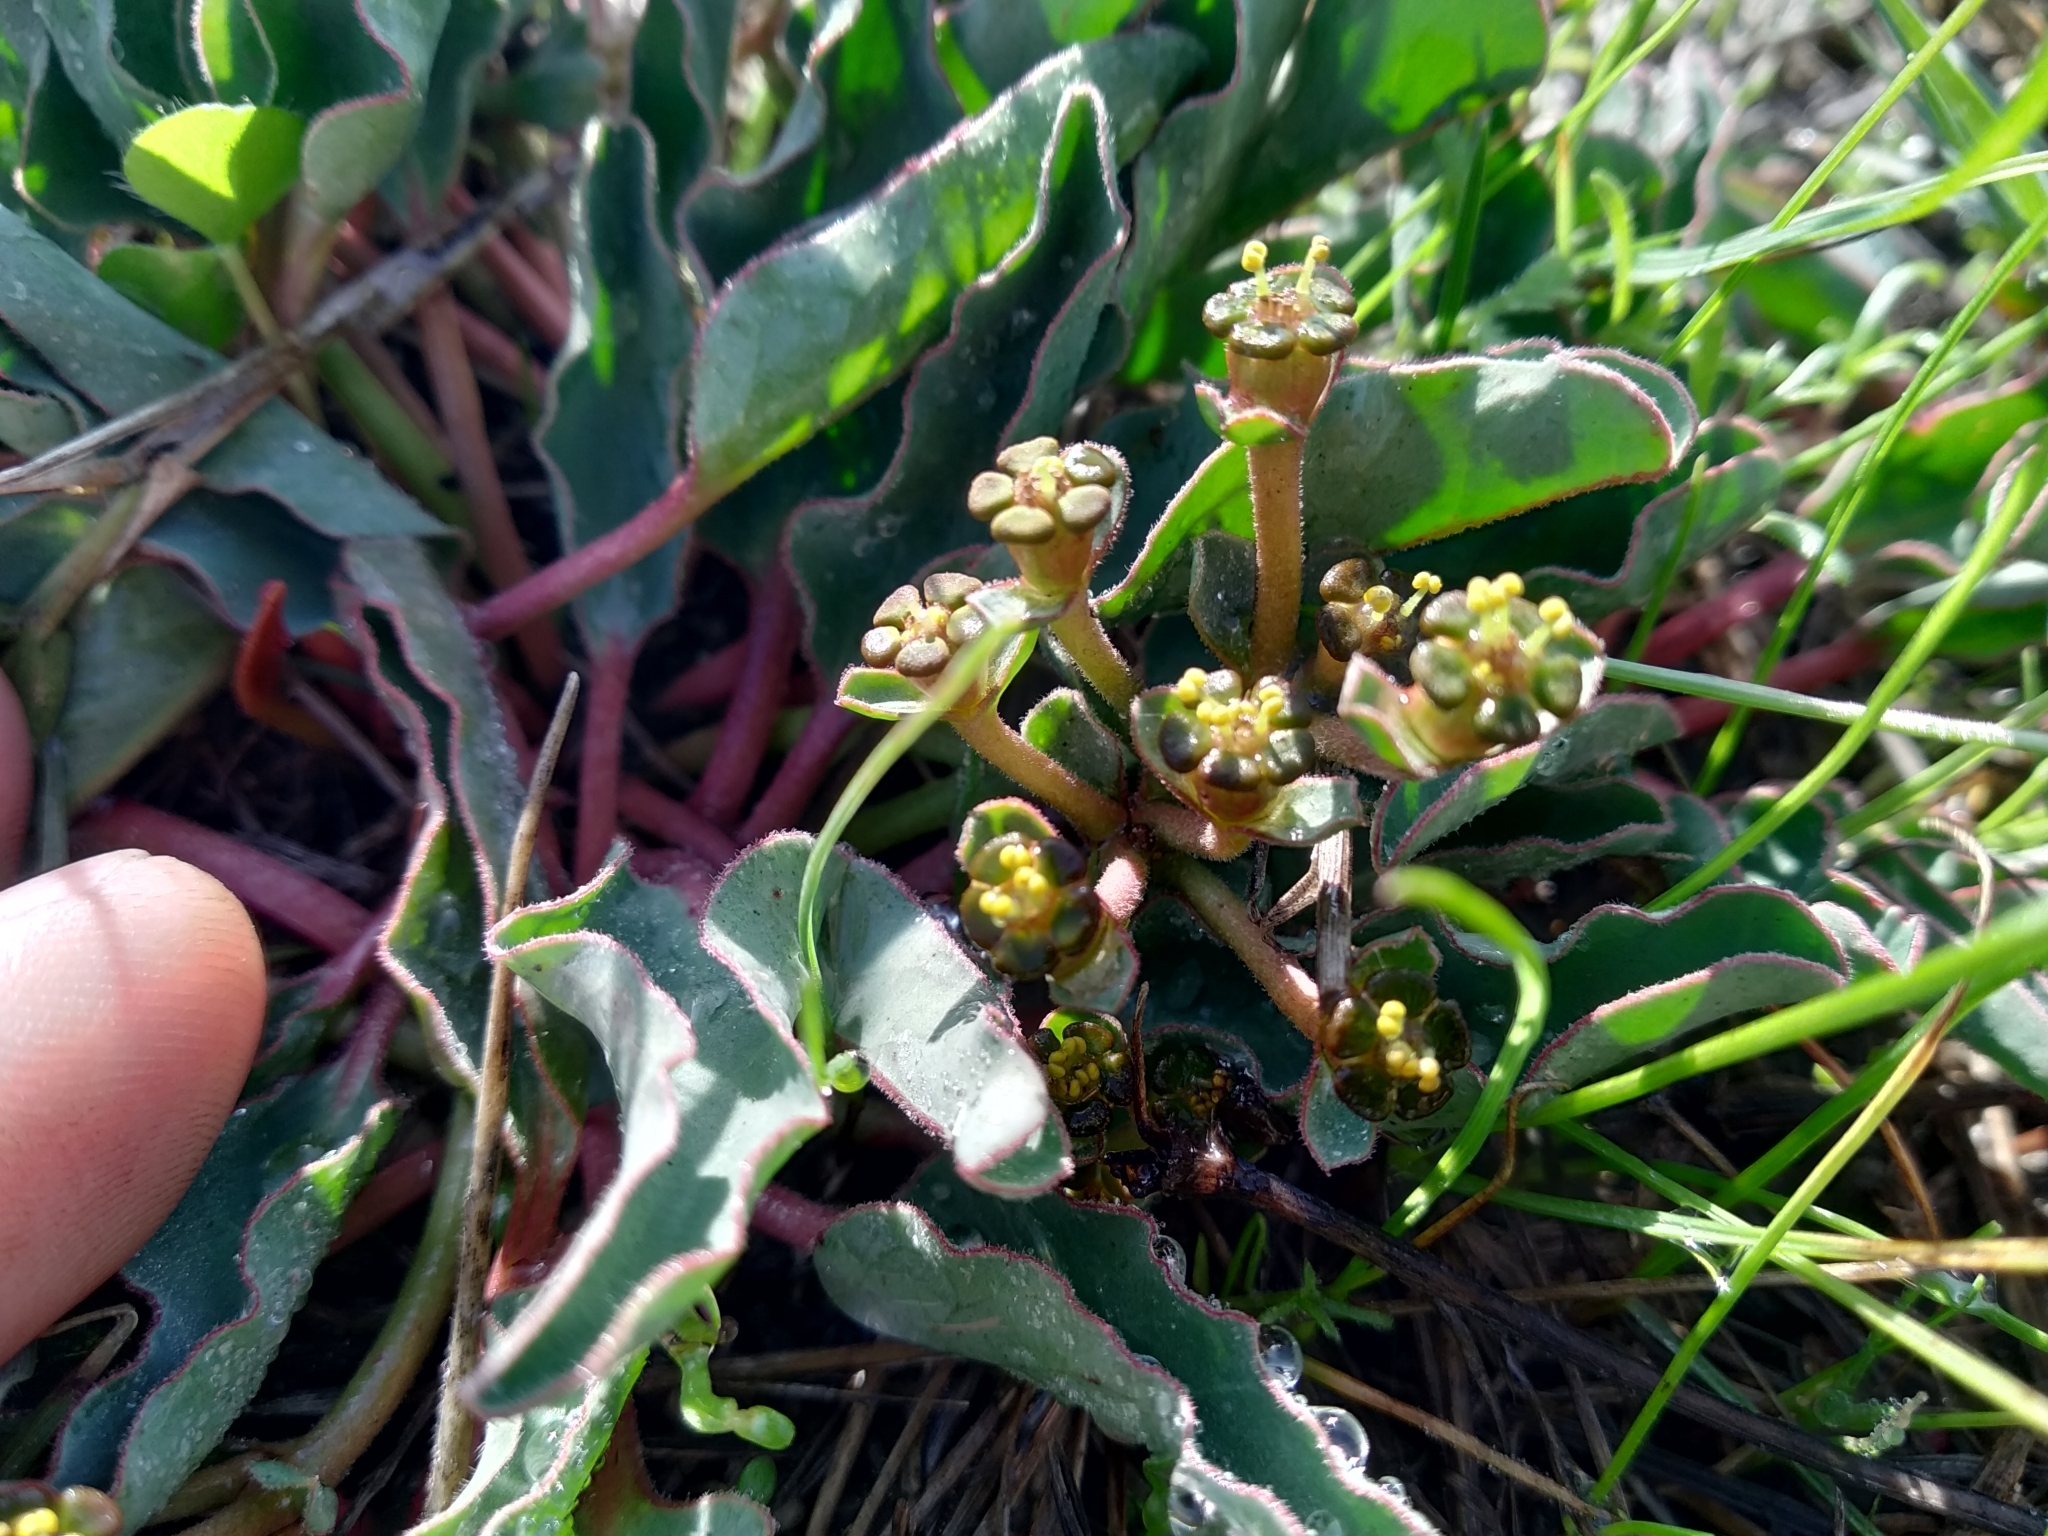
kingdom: Plantae
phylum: Tracheophyta
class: Magnoliopsida
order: Malpighiales
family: Euphorbiaceae
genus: Euphorbia
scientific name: Euphorbia tuberosa
